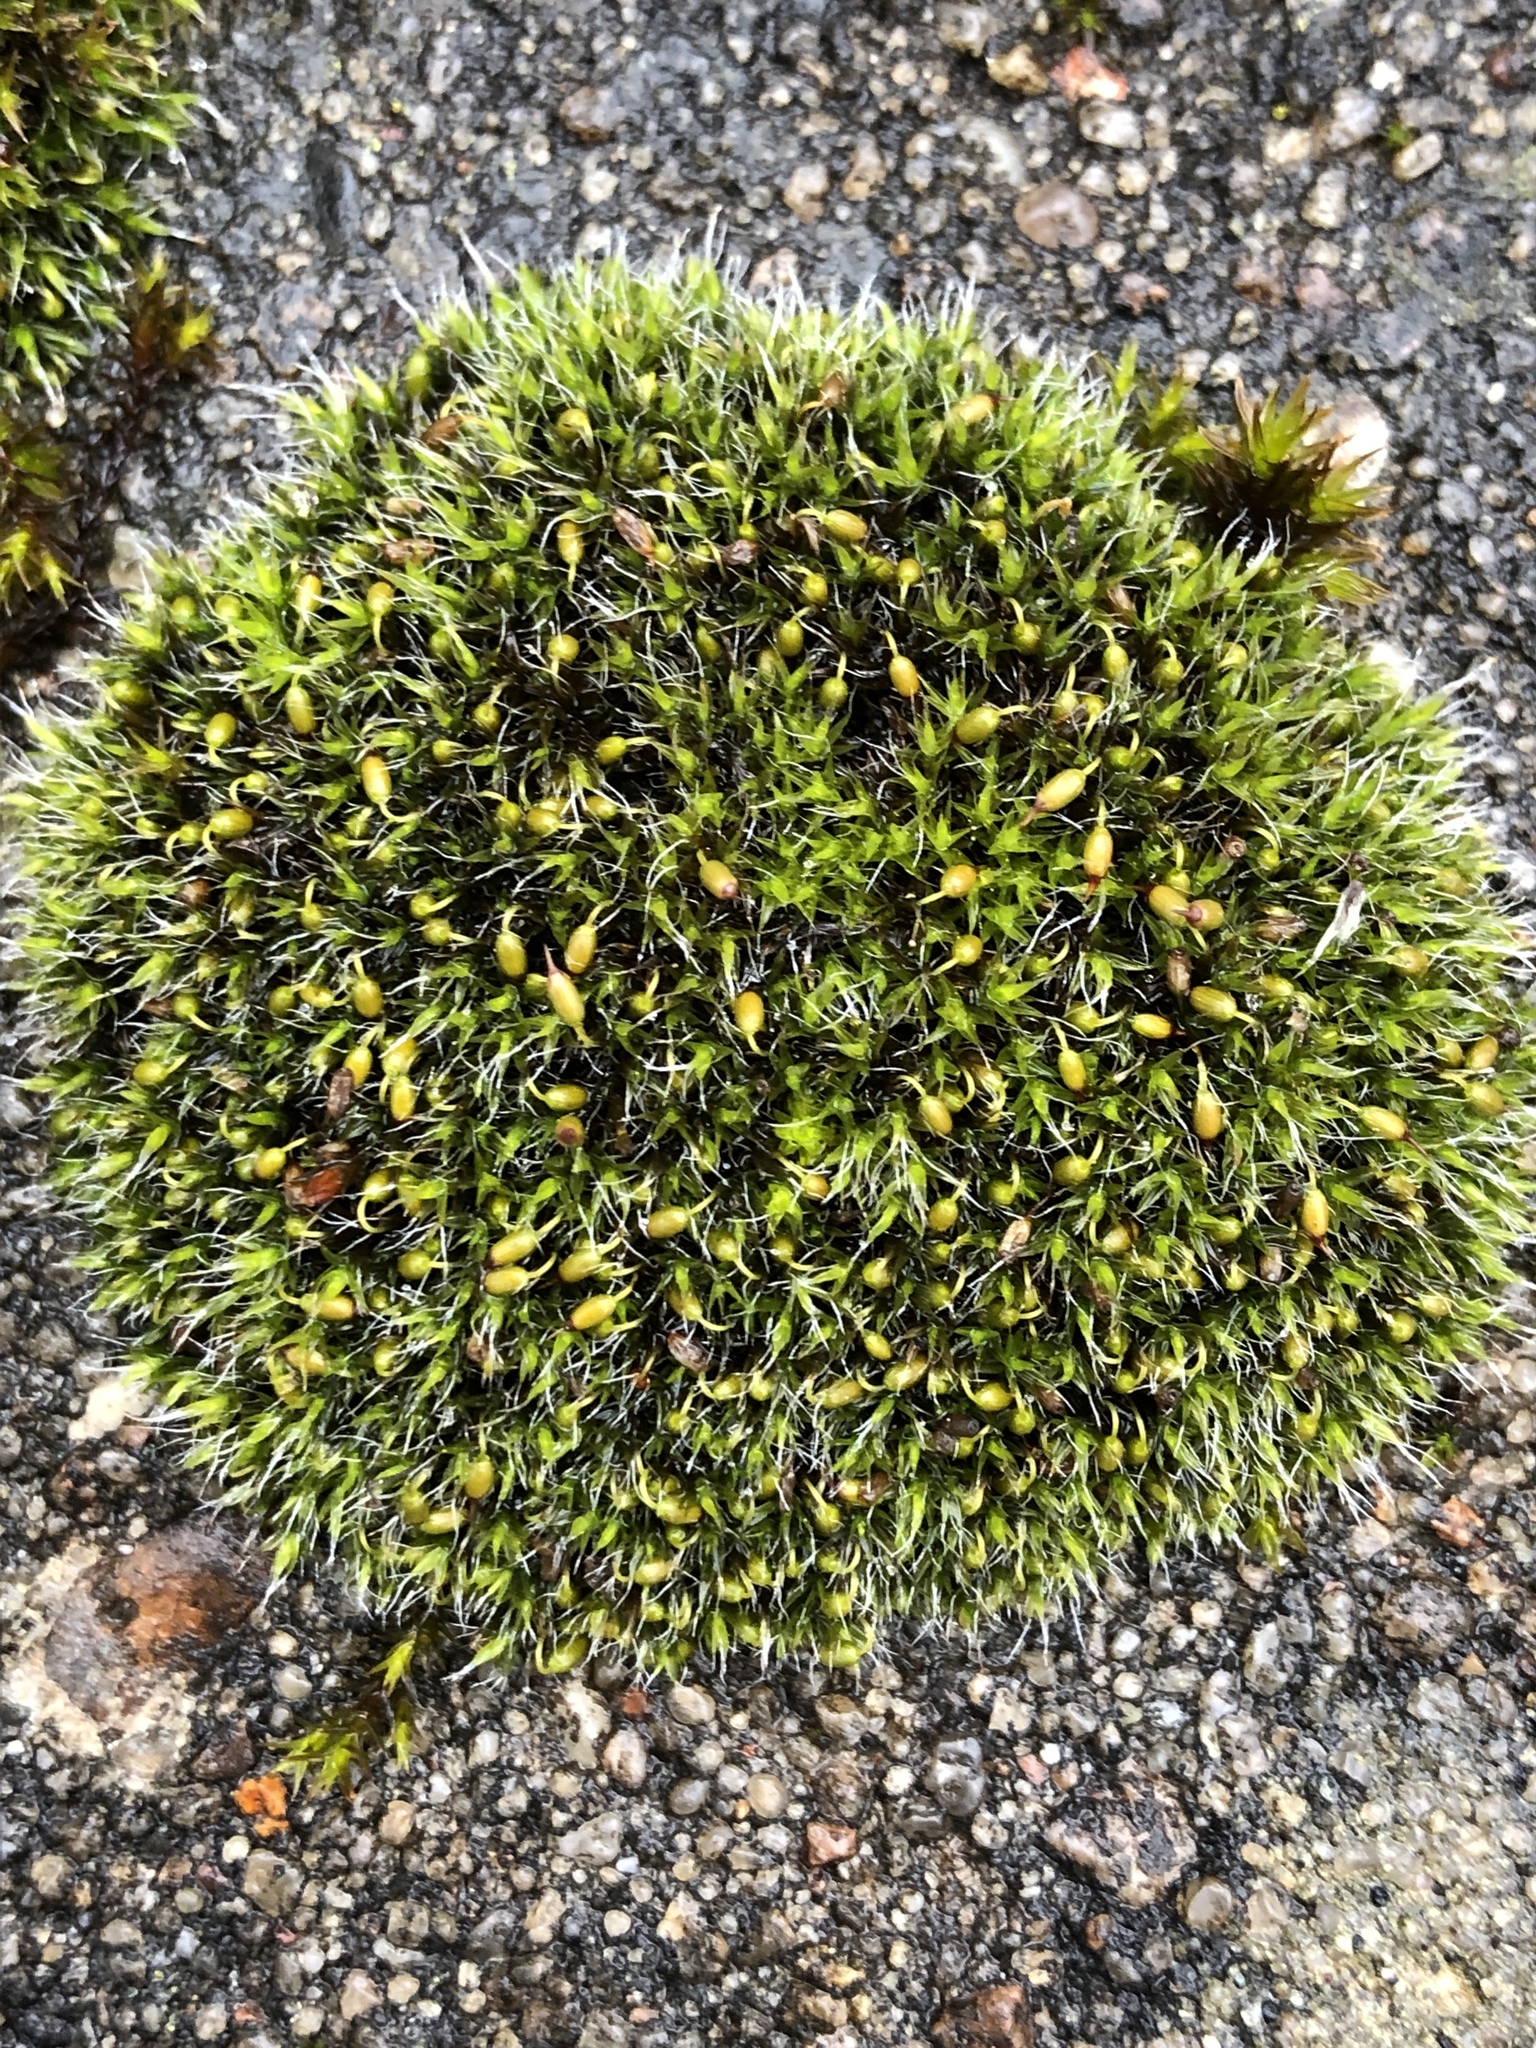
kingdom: Plantae
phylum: Bryophyta
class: Bryopsida
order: Grimmiales
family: Grimmiaceae
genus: Grimmia
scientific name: Grimmia pulvinata
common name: Grey-cushioned grimmia
